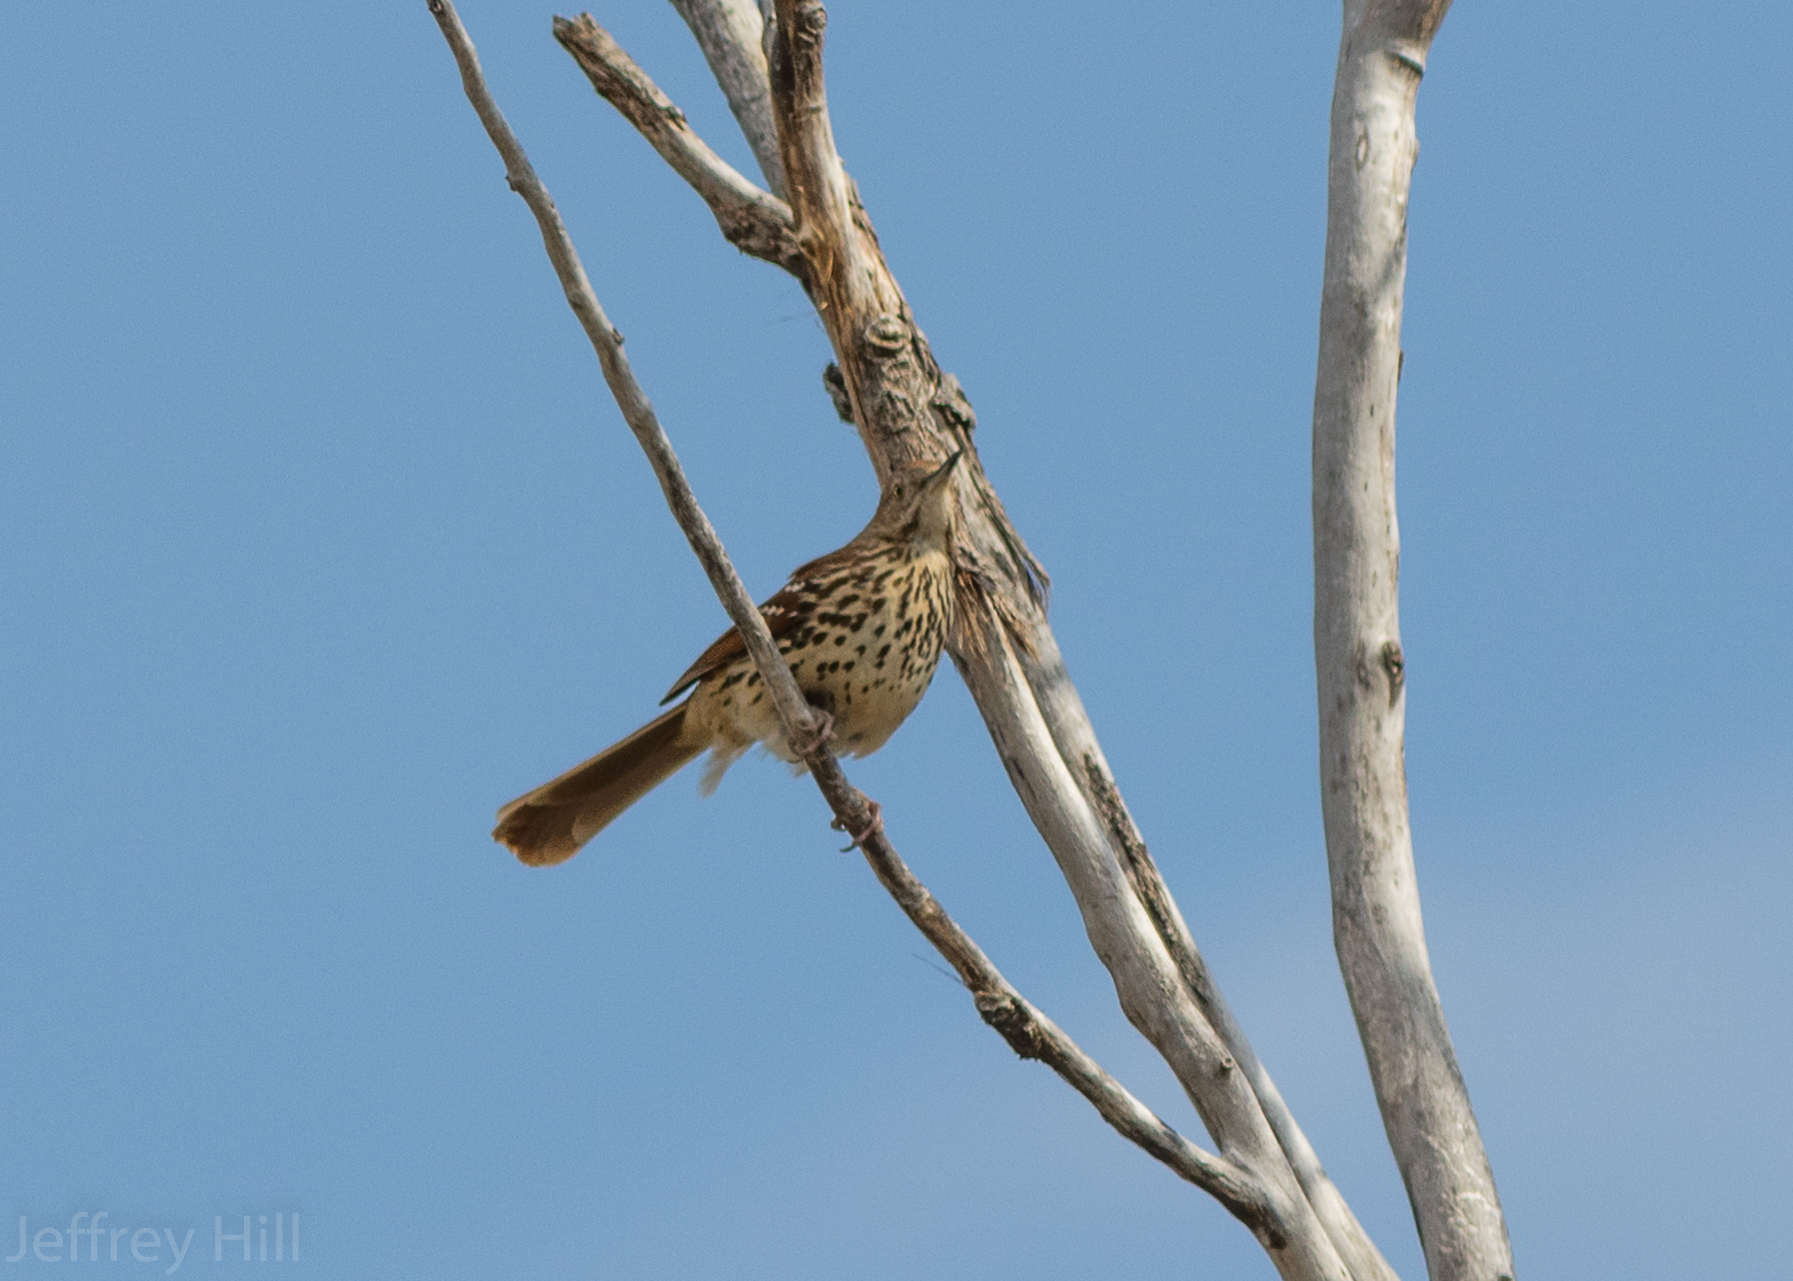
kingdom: Animalia
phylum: Chordata
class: Aves
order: Passeriformes
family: Mimidae
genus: Toxostoma
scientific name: Toxostoma rufum
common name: Brown thrasher
